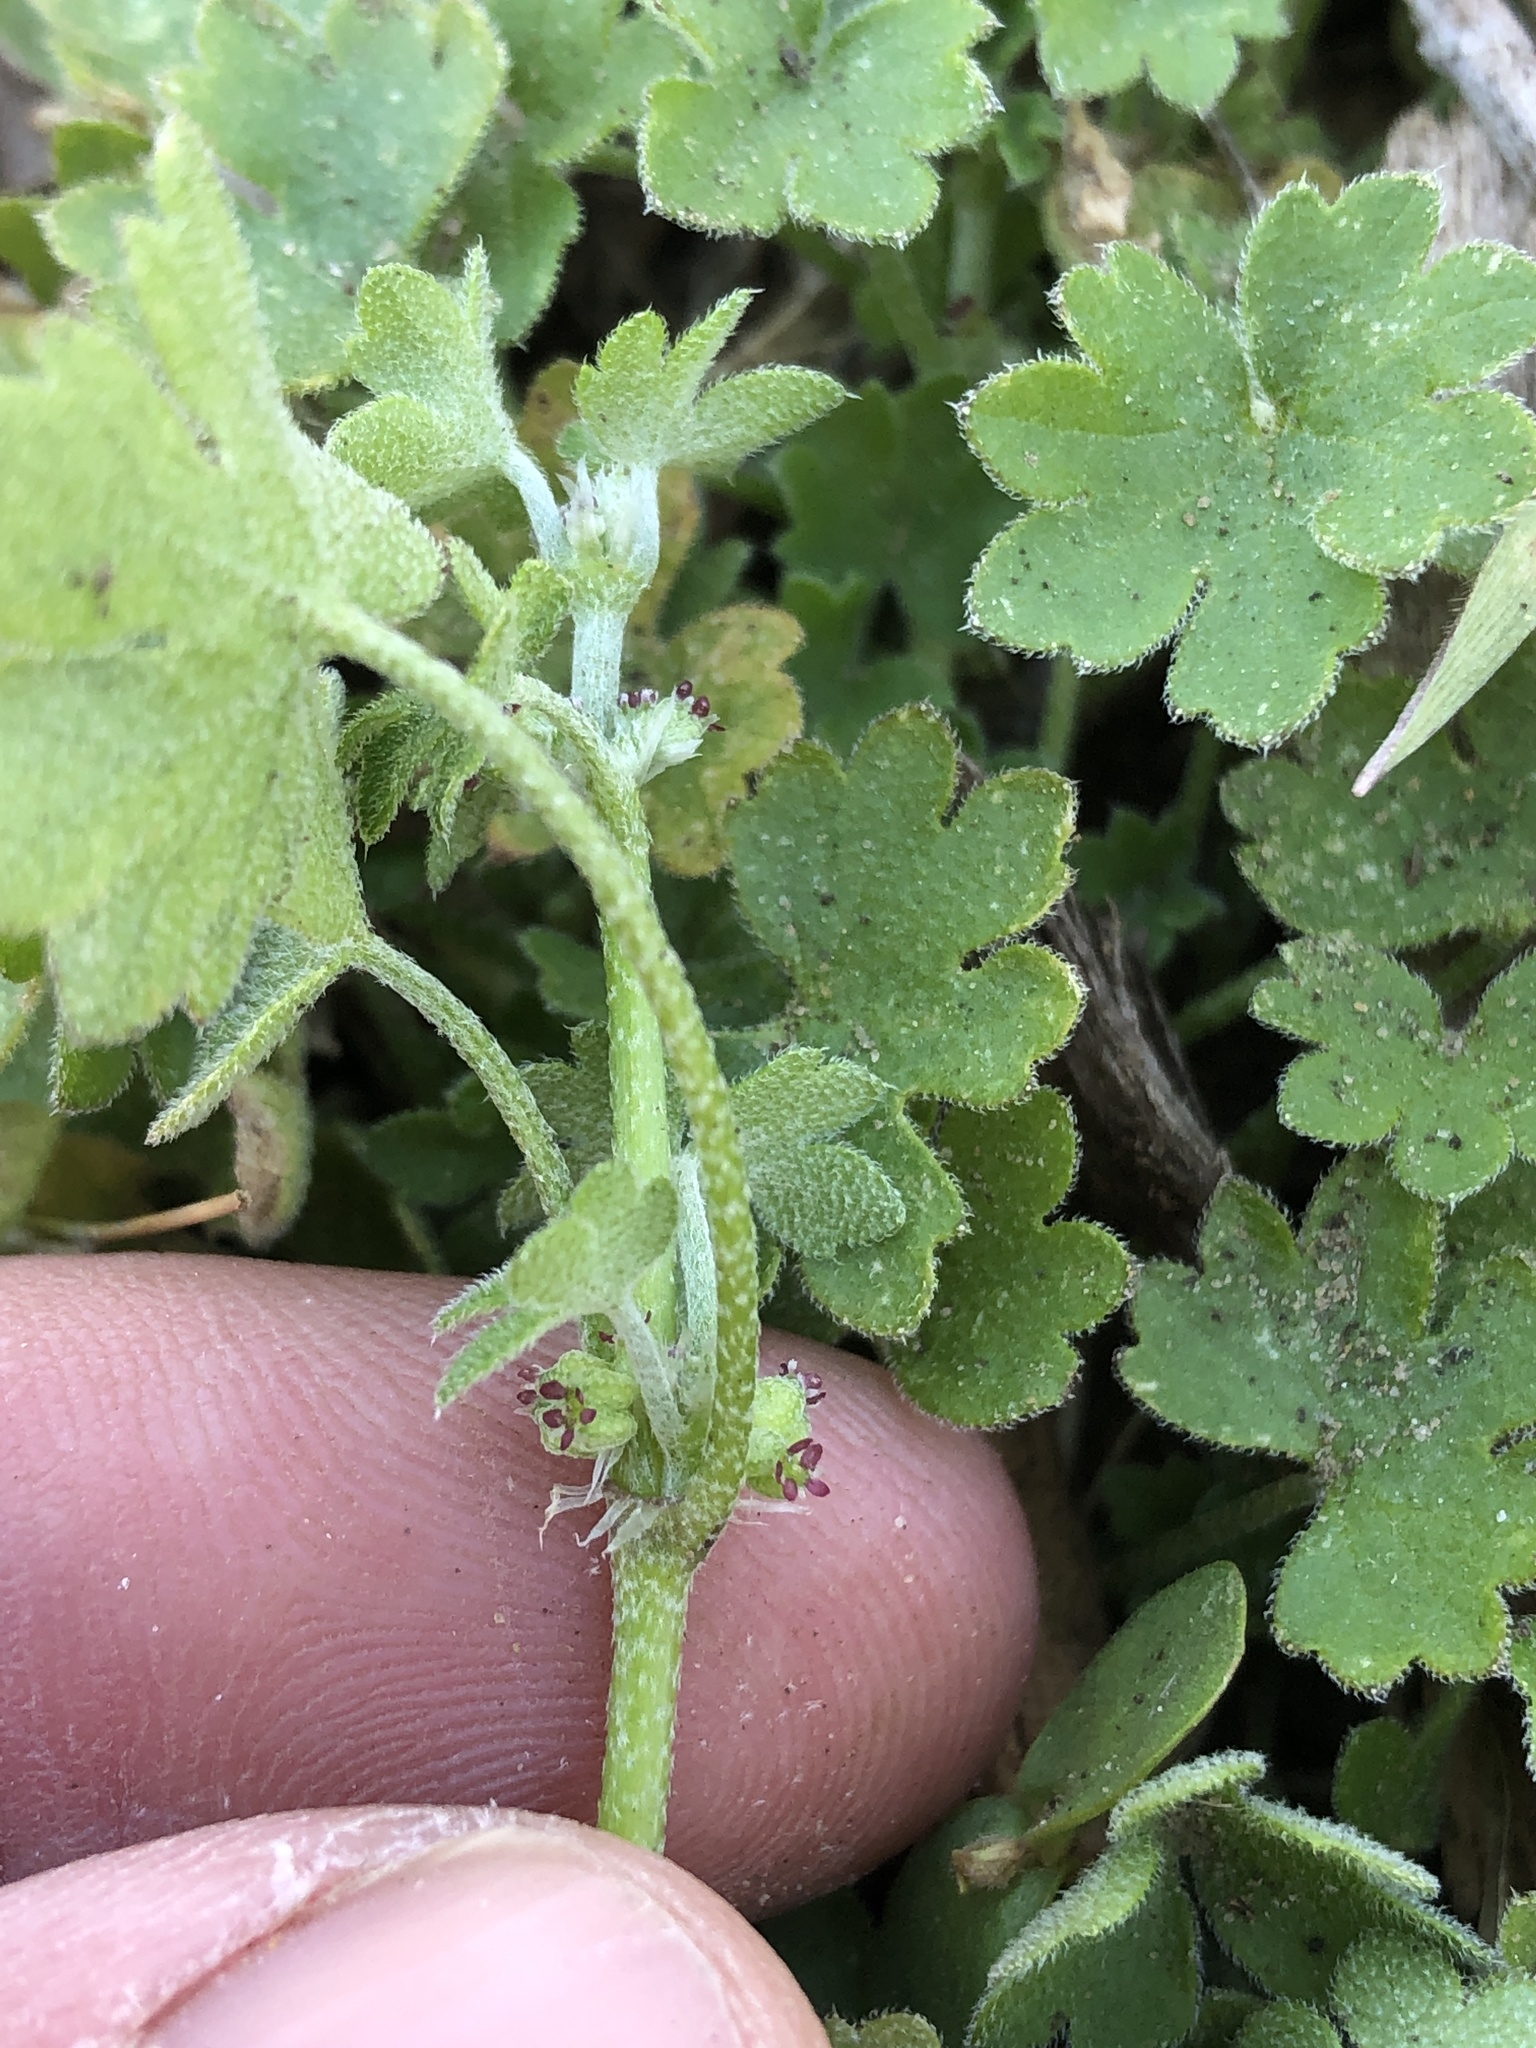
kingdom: Plantae
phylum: Tracheophyta
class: Magnoliopsida
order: Apiales
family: Apiaceae
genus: Bowlesia
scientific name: Bowlesia incana
